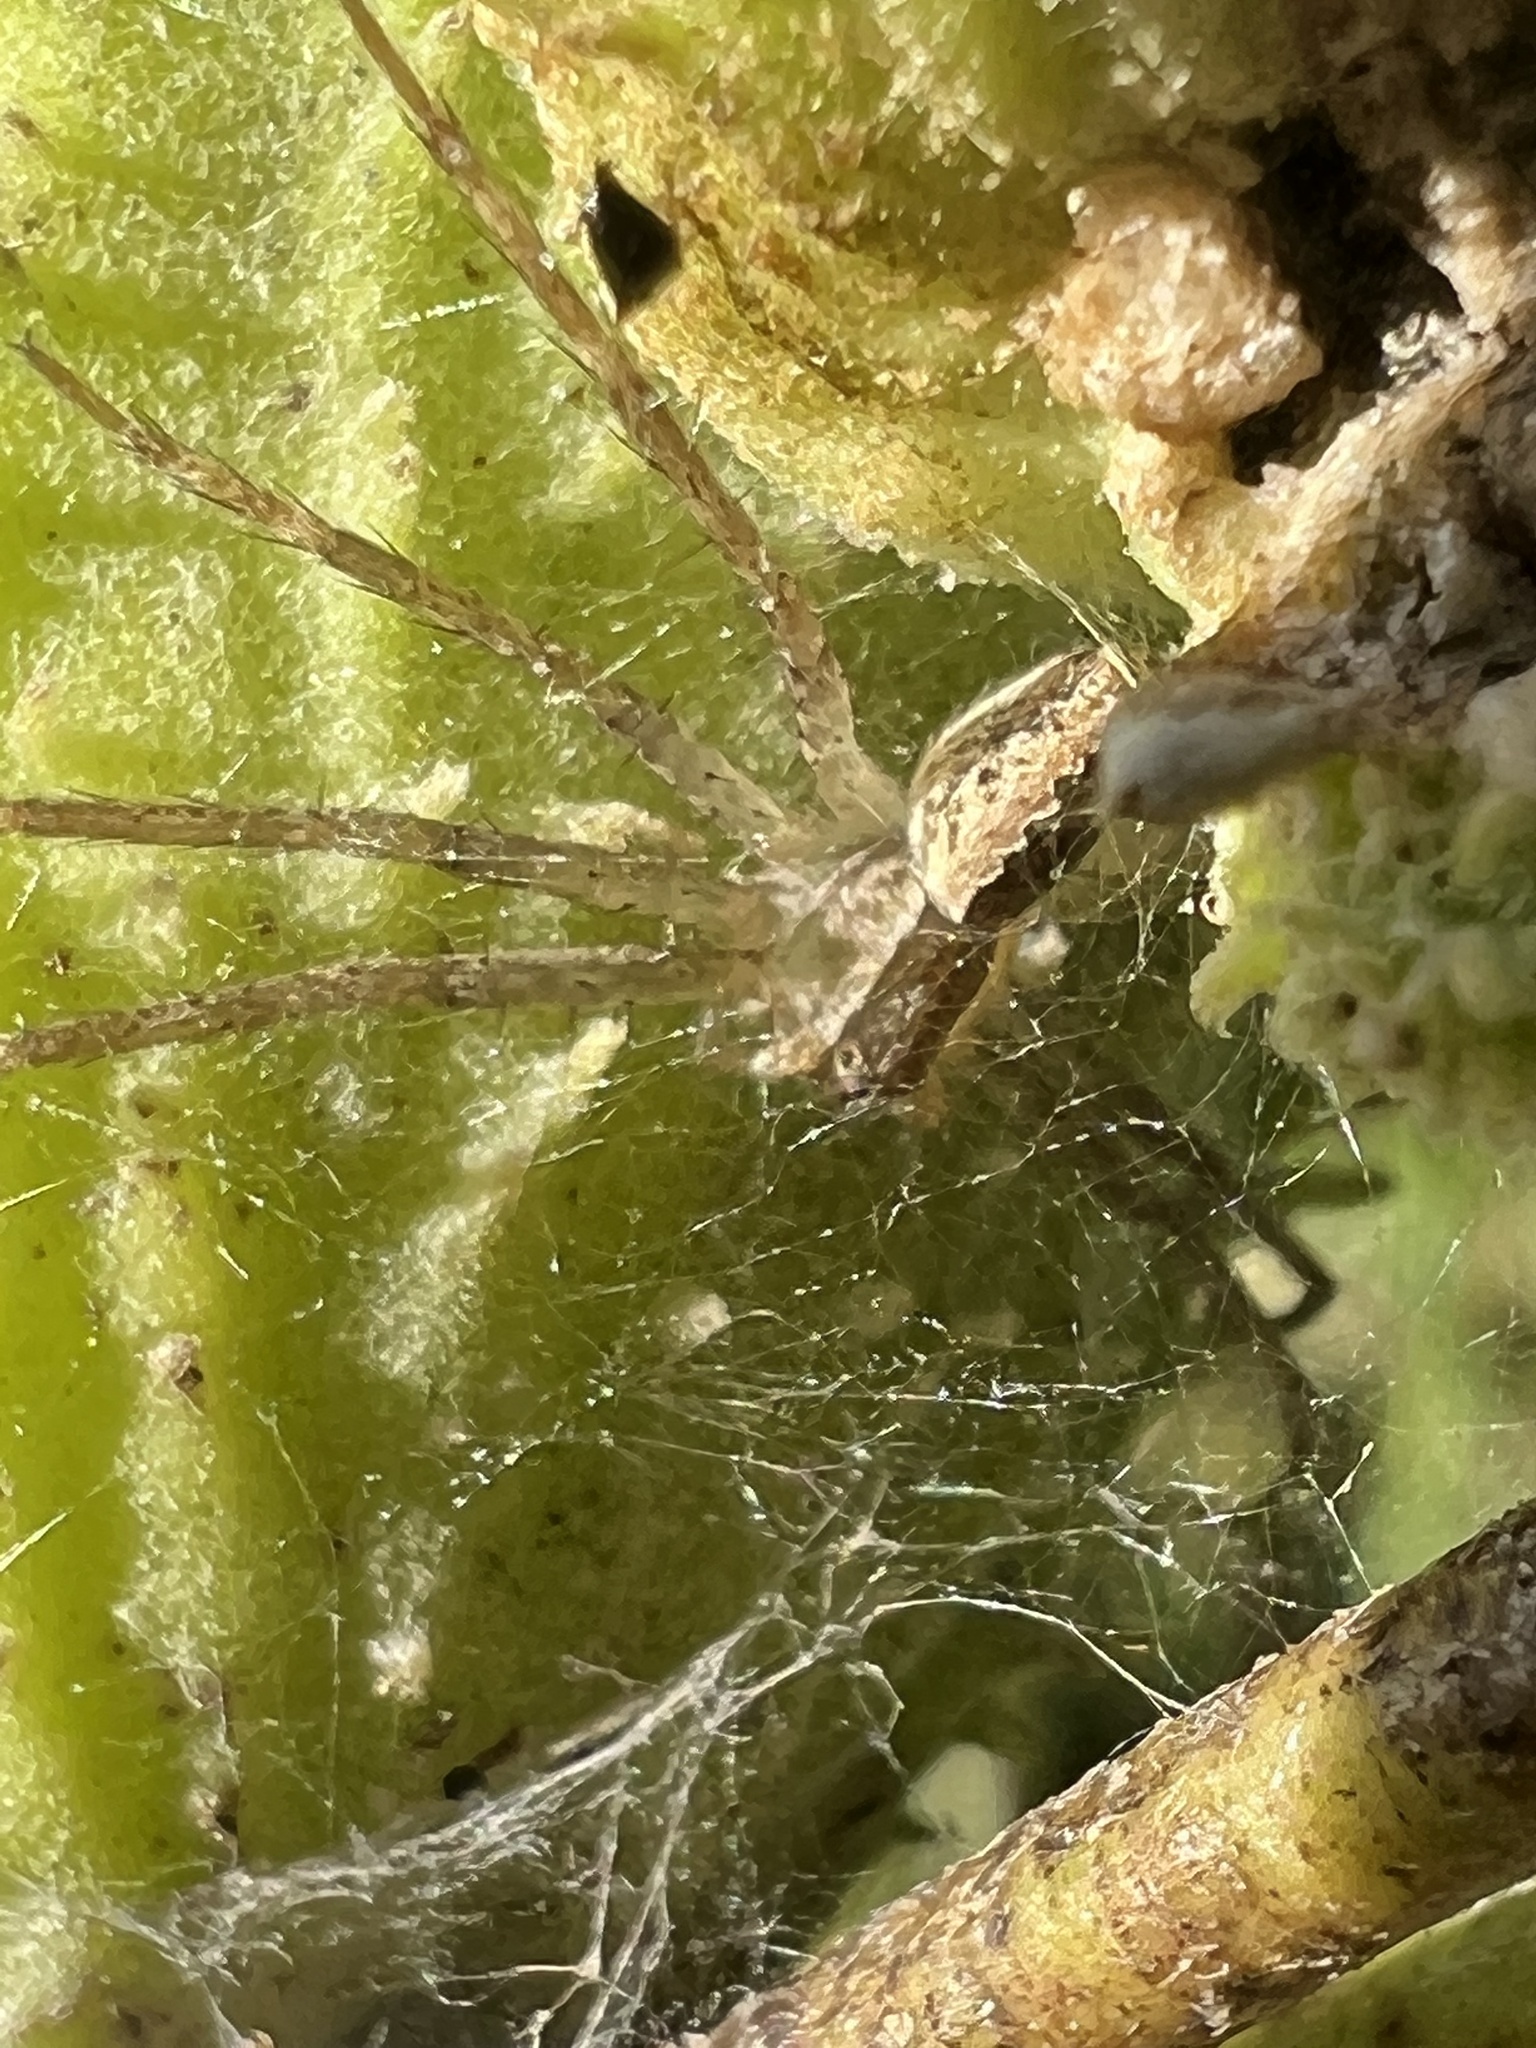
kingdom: Animalia
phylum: Arthropoda
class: Arachnida
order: Araneae
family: Pisauridae
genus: Pisaurina
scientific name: Pisaurina mira
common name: American nursery web spider
